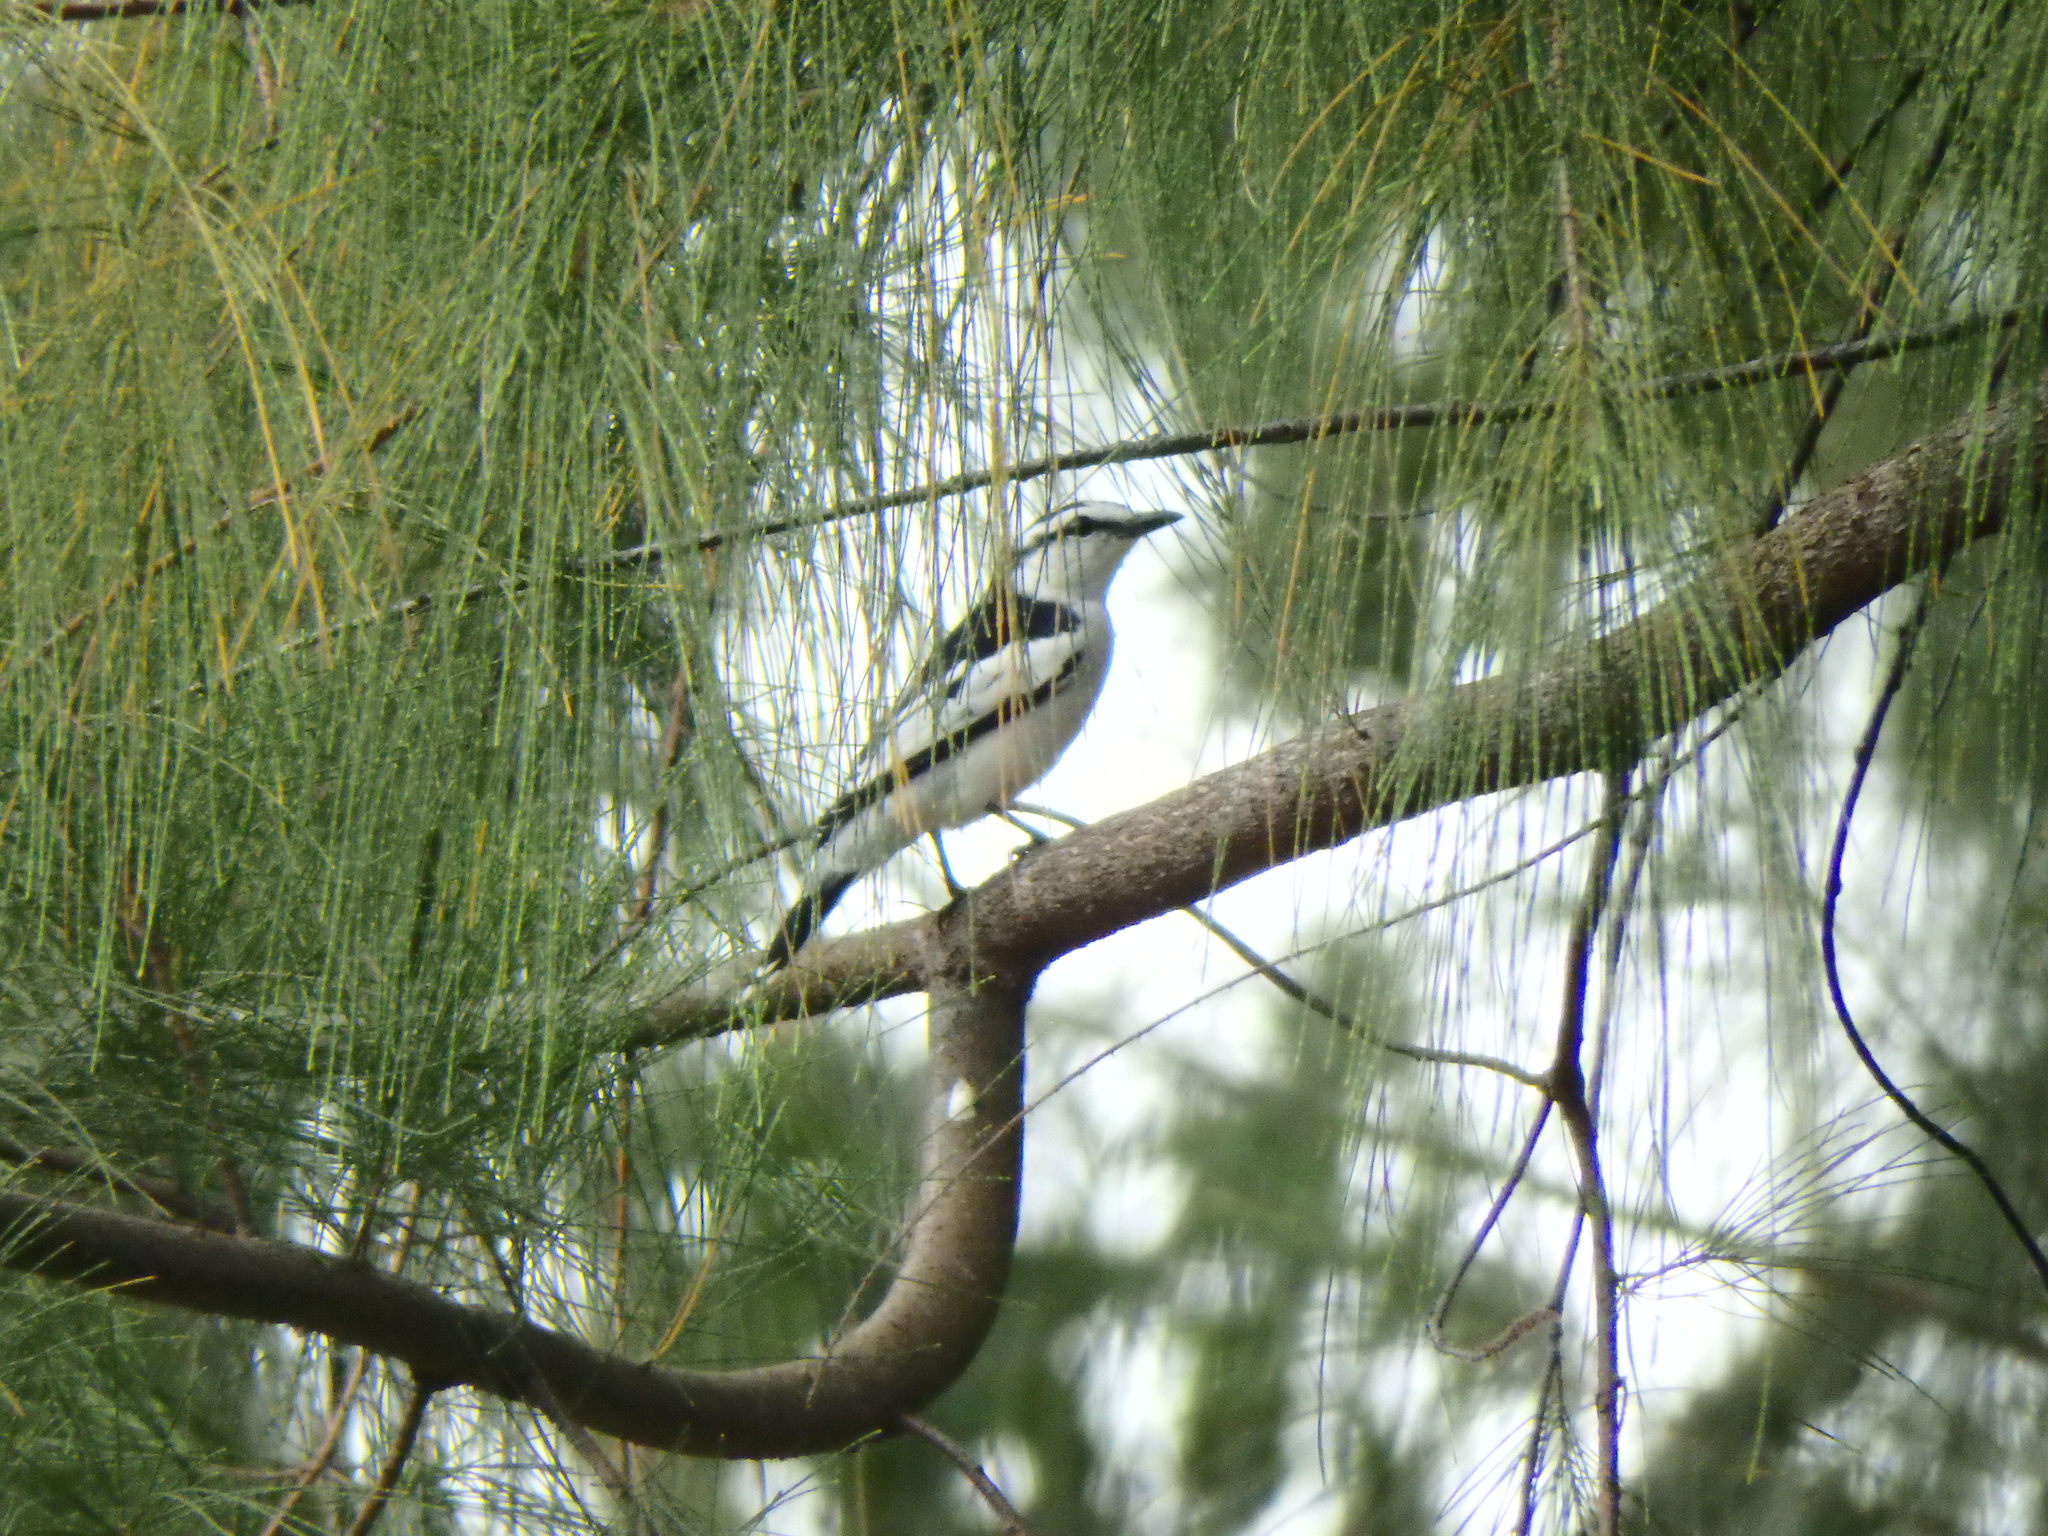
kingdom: Animalia
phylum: Chordata
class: Aves
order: Passeriformes
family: Campephagidae
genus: Lalage
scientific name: Lalage nigra
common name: Pied triller
